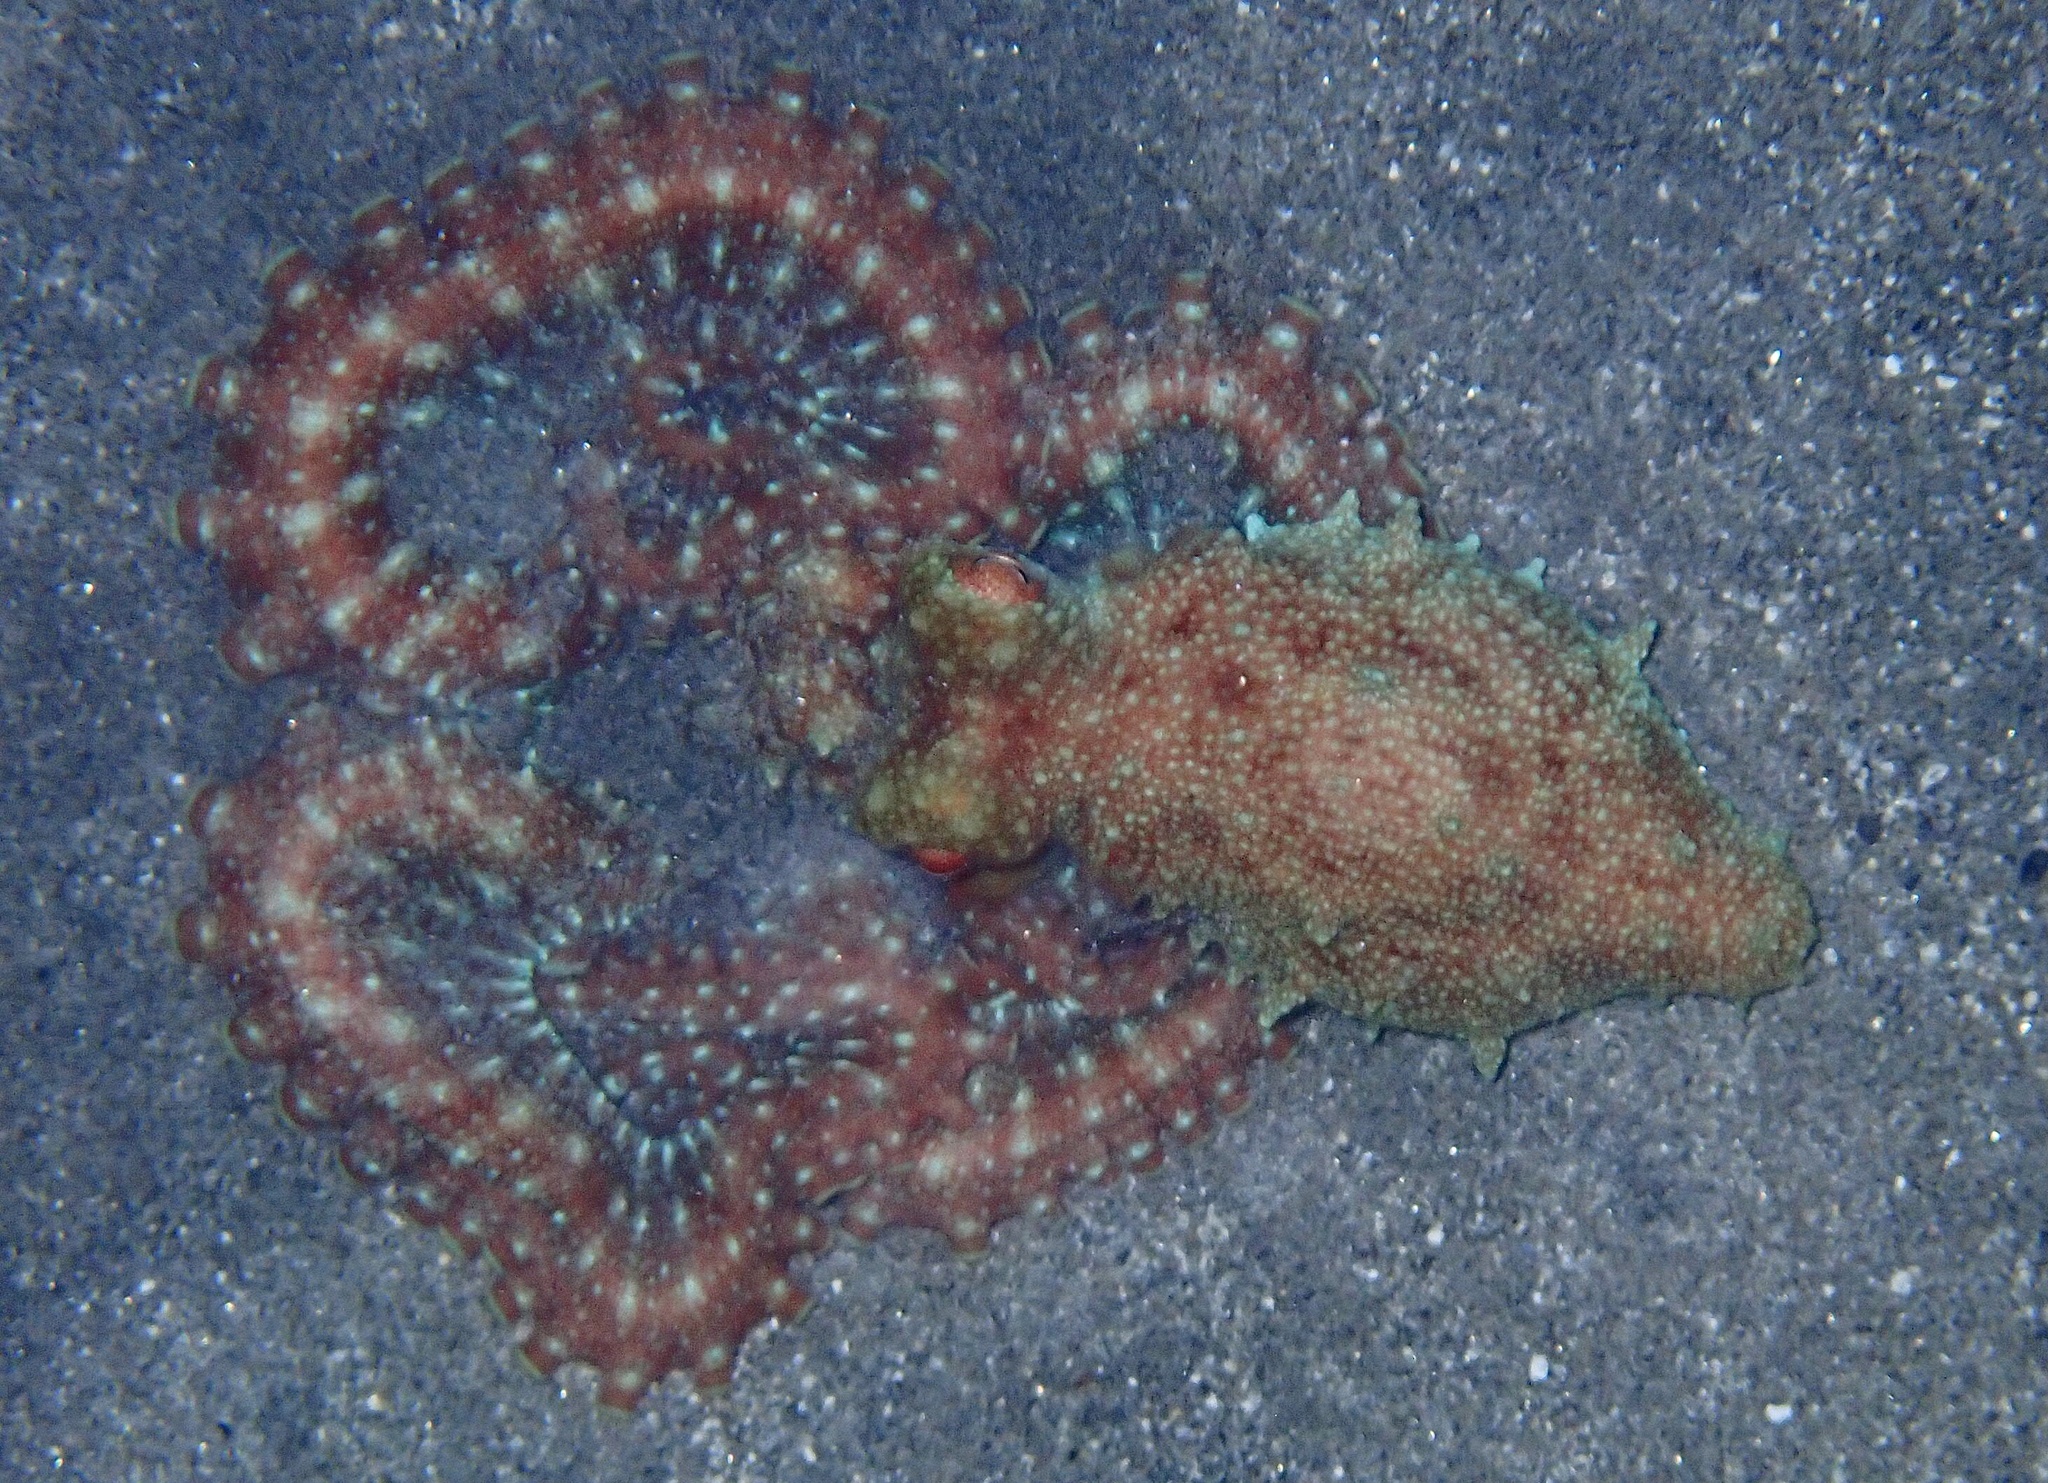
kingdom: Animalia
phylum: Mollusca
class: Cephalopoda
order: Octopoda
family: Octopodidae
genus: Callistoctopus
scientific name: Callistoctopus ornatus
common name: Ornate octopus
